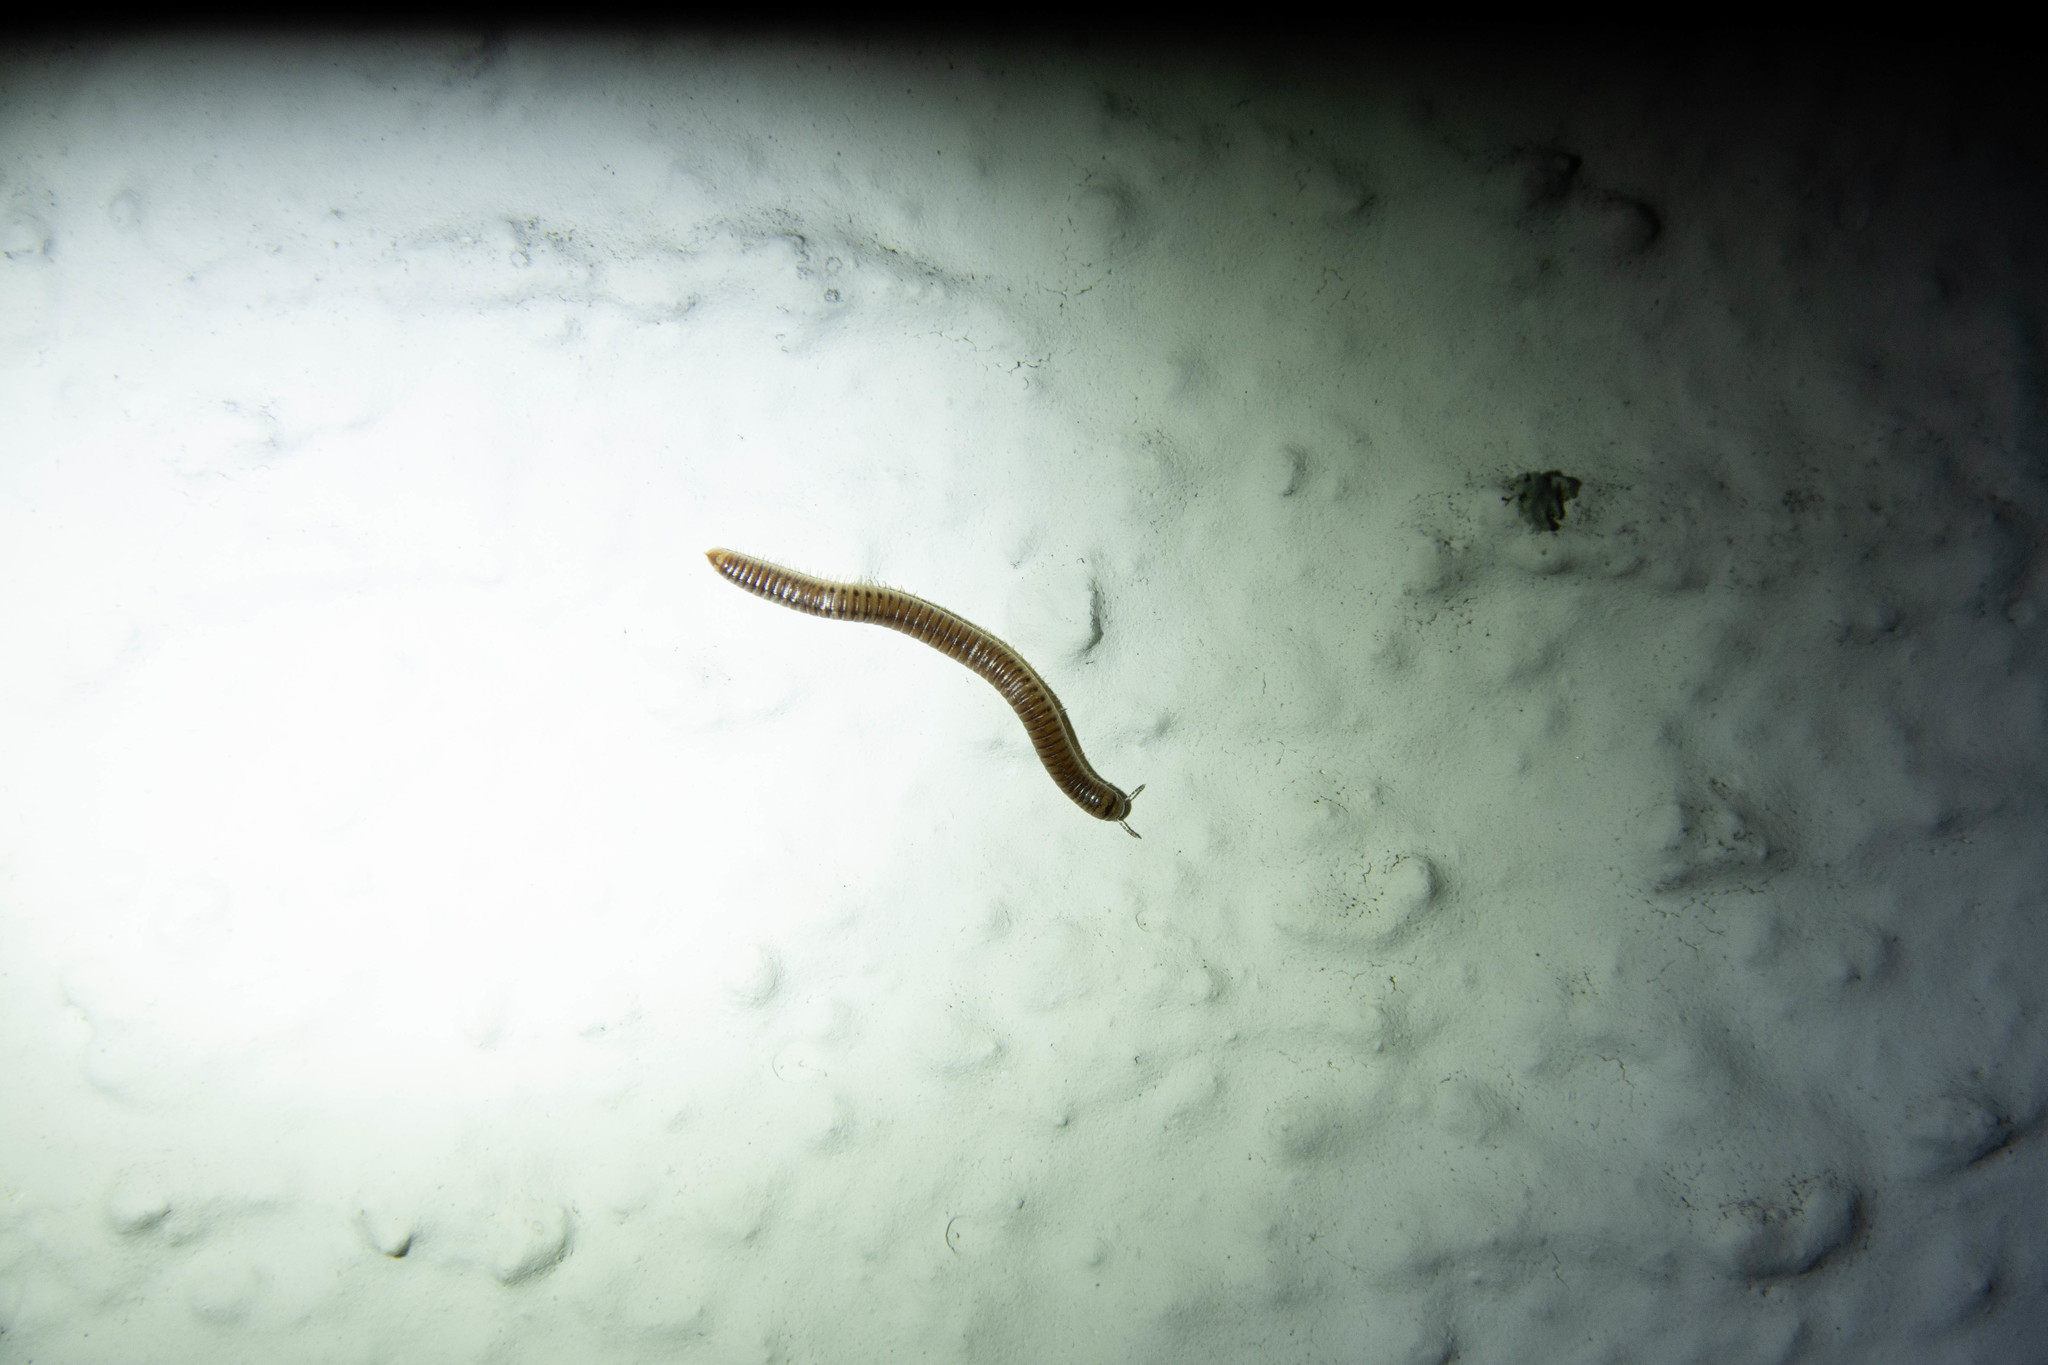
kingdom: Animalia
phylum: Arthropoda
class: Diplopoda
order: Julida
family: Julidae
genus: Cylindroiulus
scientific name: Cylindroiulus punctatus
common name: Blunt-tailed millipede
